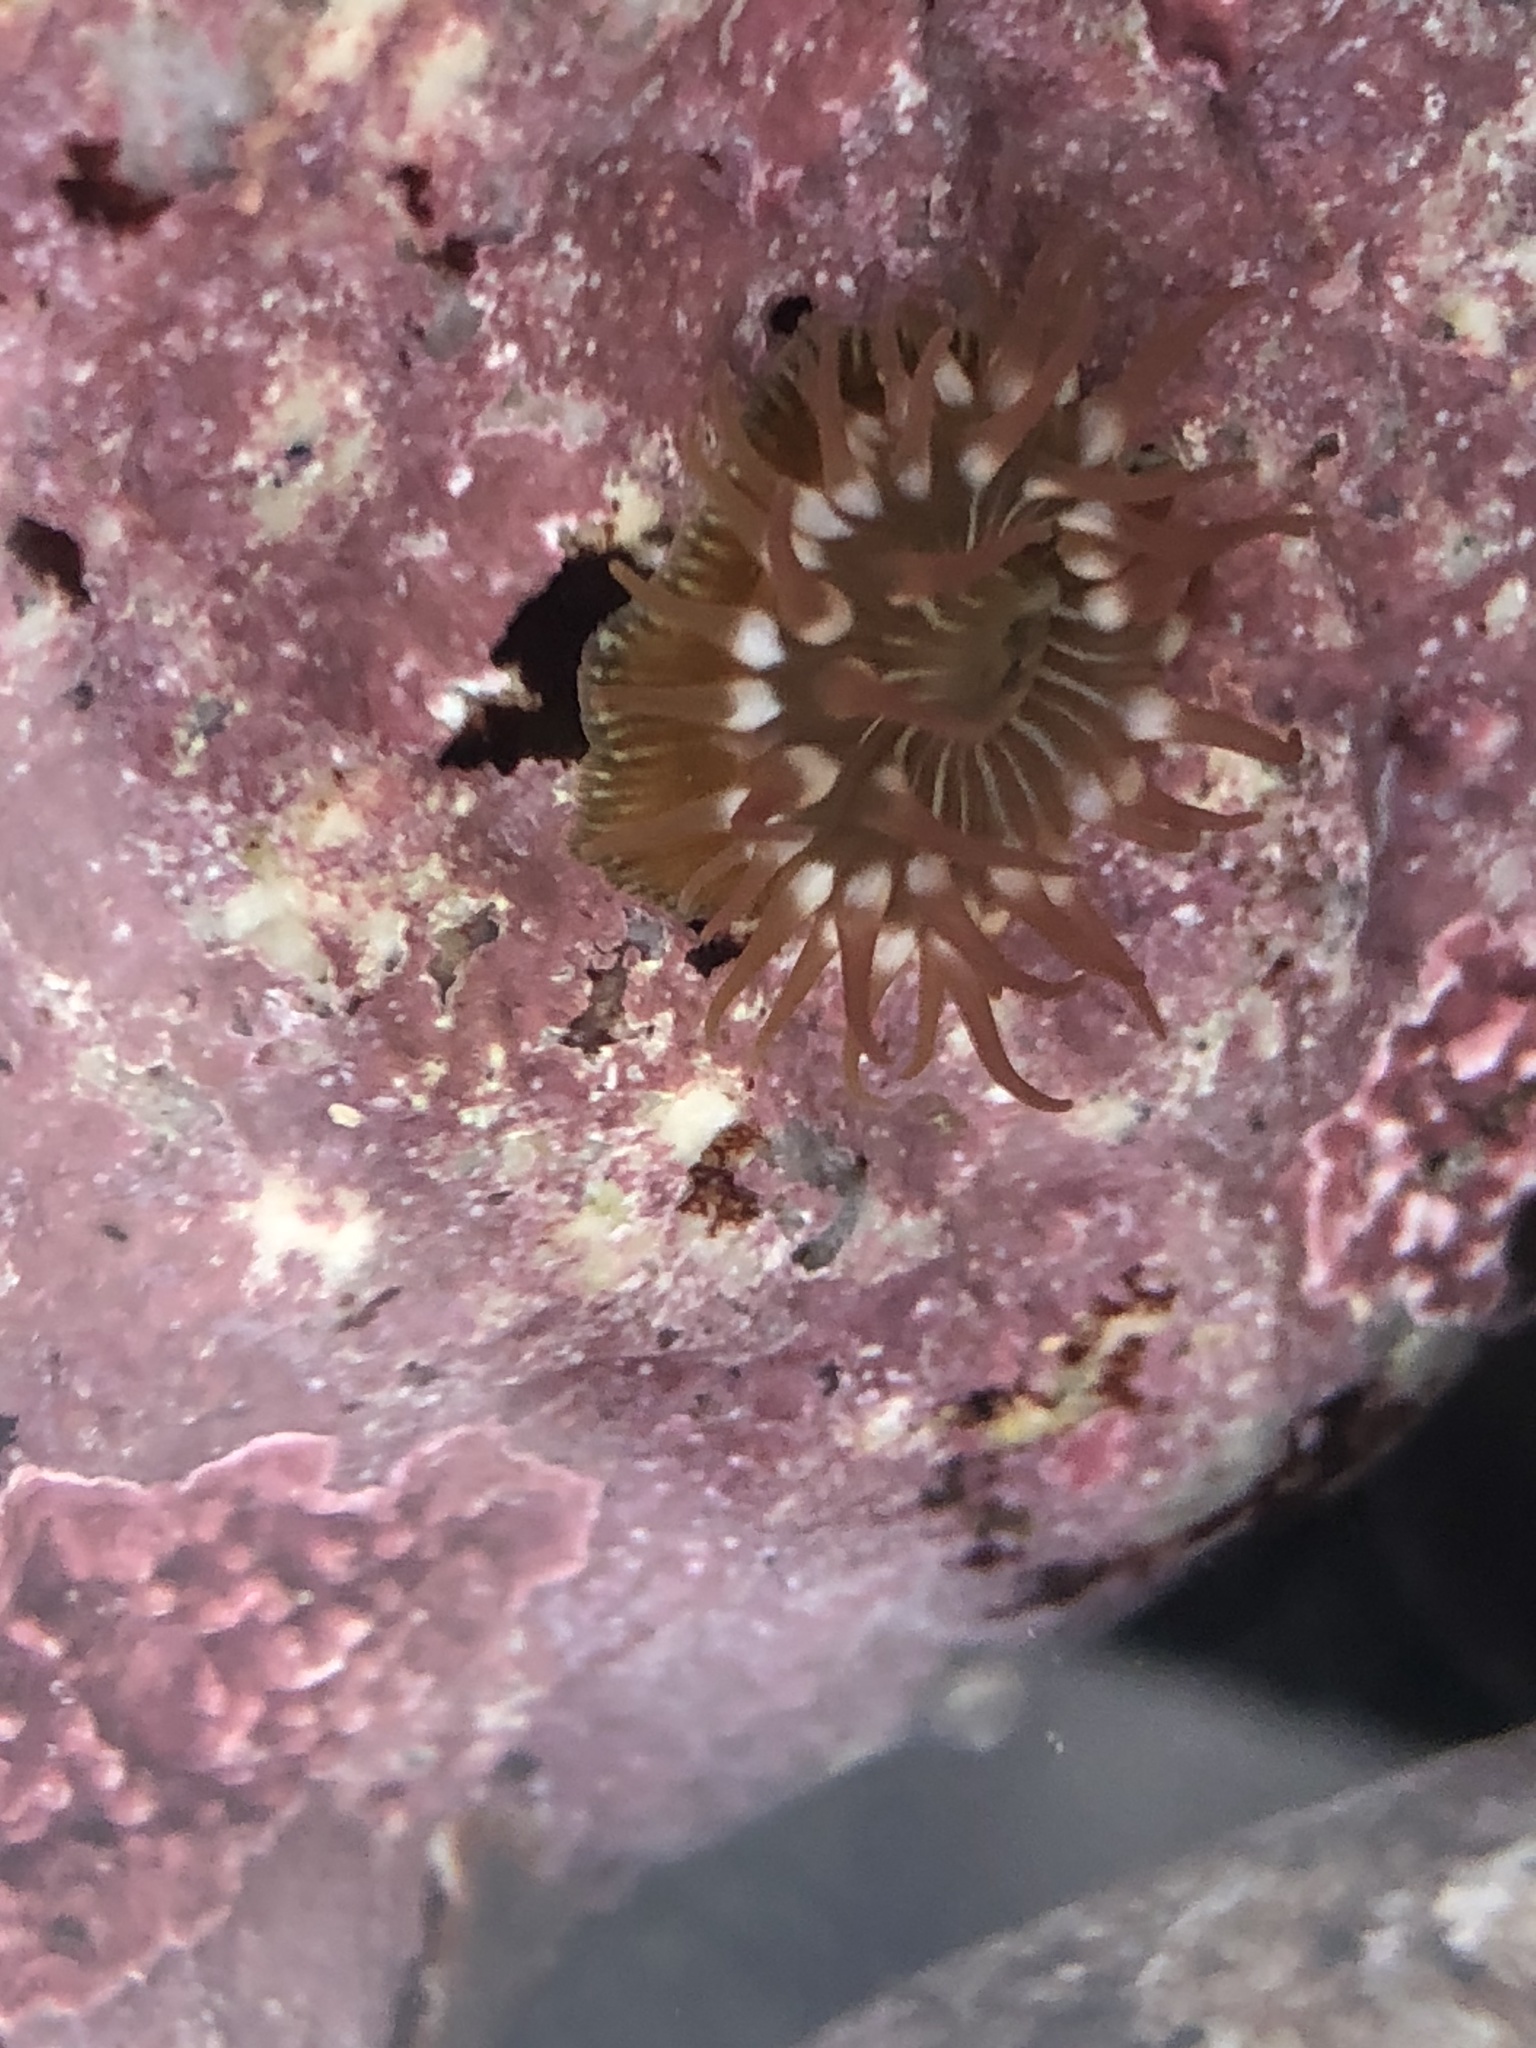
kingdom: Animalia
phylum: Cnidaria
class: Anthozoa
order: Actiniaria
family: Actiniidae
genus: Epiactis
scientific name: Epiactis prolifera
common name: Brooding anemone
